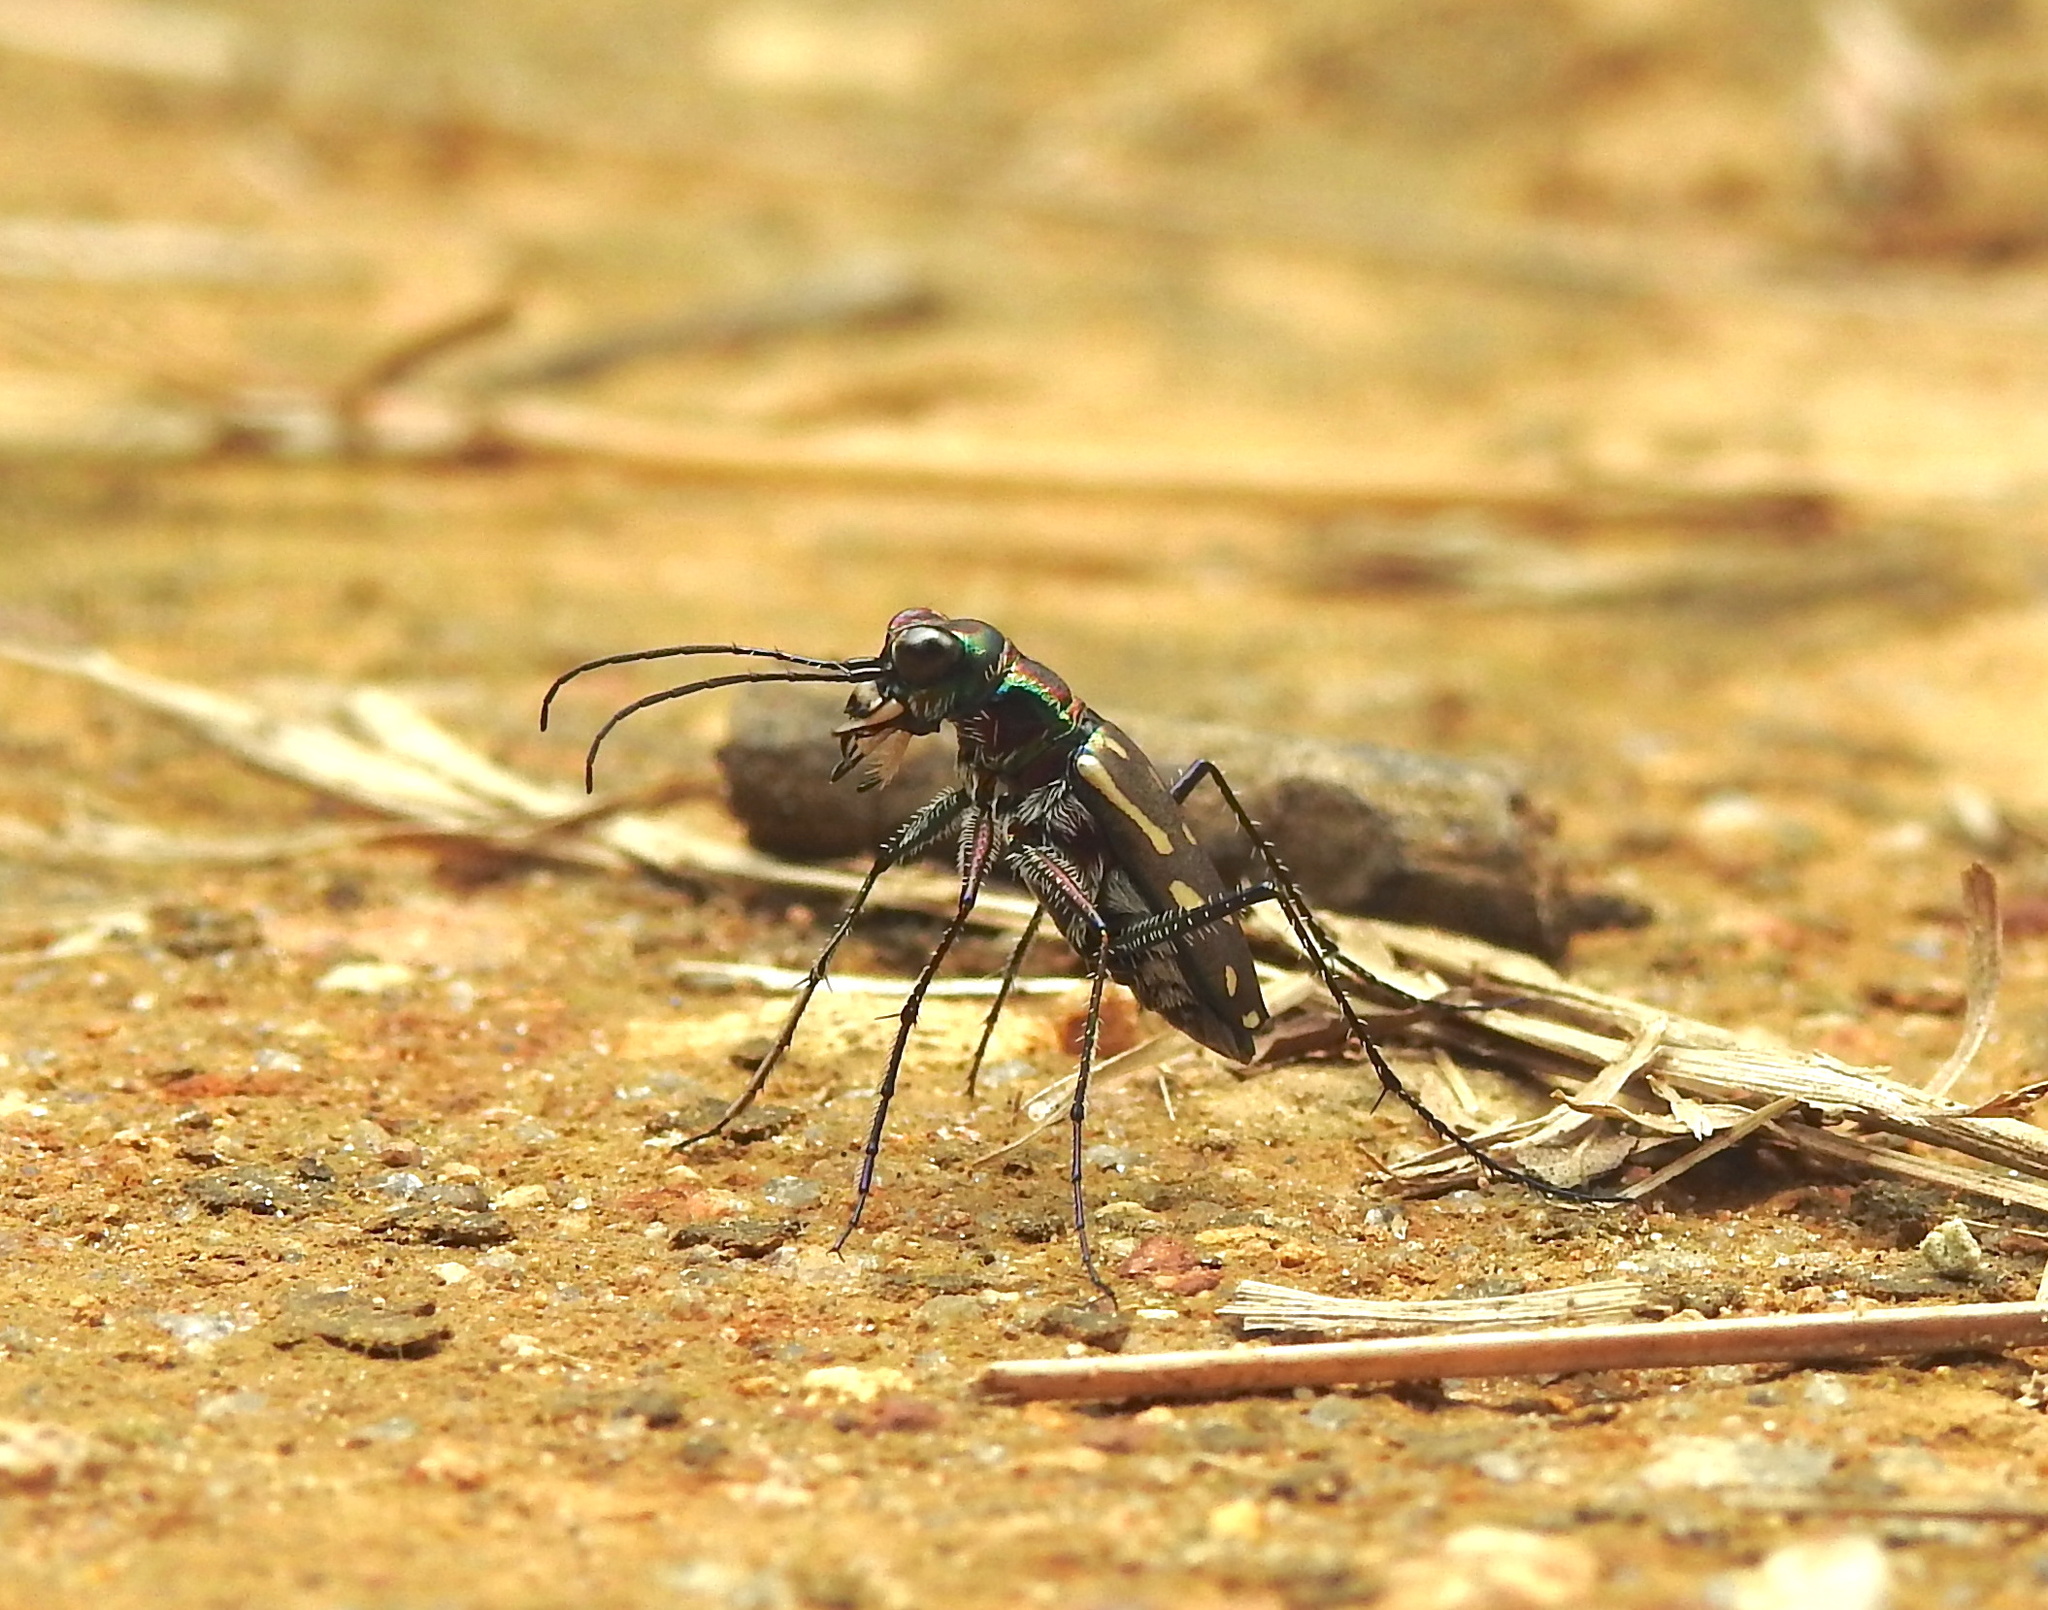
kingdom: Animalia
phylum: Arthropoda
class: Insecta
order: Coleoptera
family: Carabidae
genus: Lophyra
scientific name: Lophyra striolata
